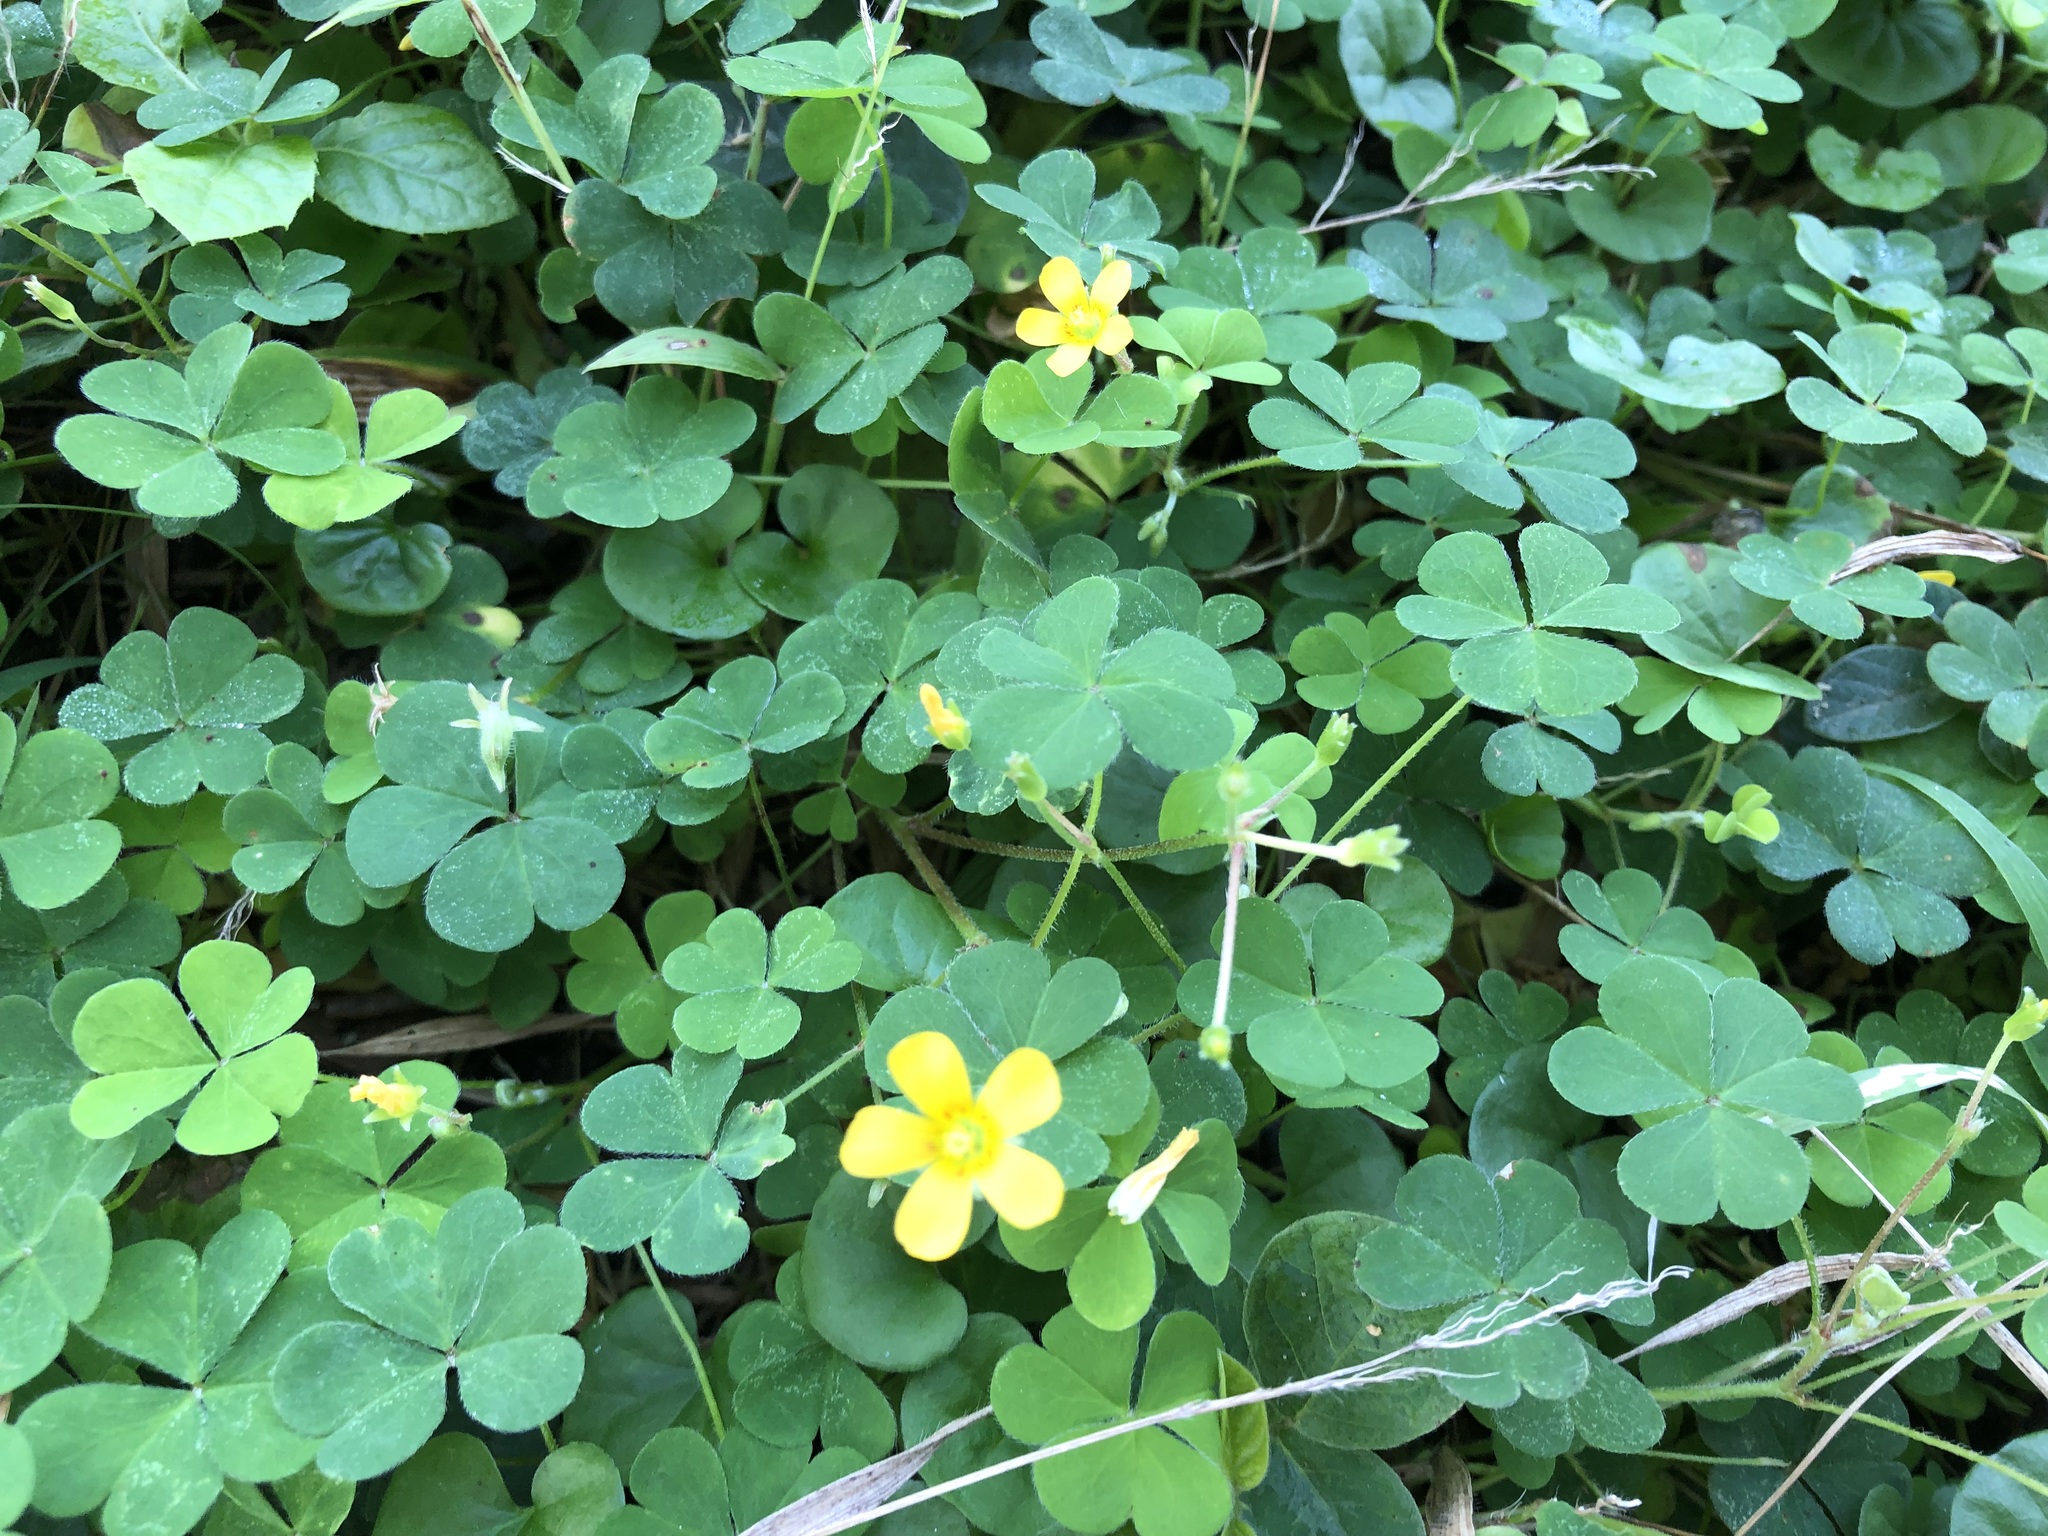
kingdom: Plantae
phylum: Tracheophyta
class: Magnoliopsida
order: Oxalidales
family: Oxalidaceae
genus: Oxalis
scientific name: Oxalis corniculata
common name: Procumbent yellow-sorrel
